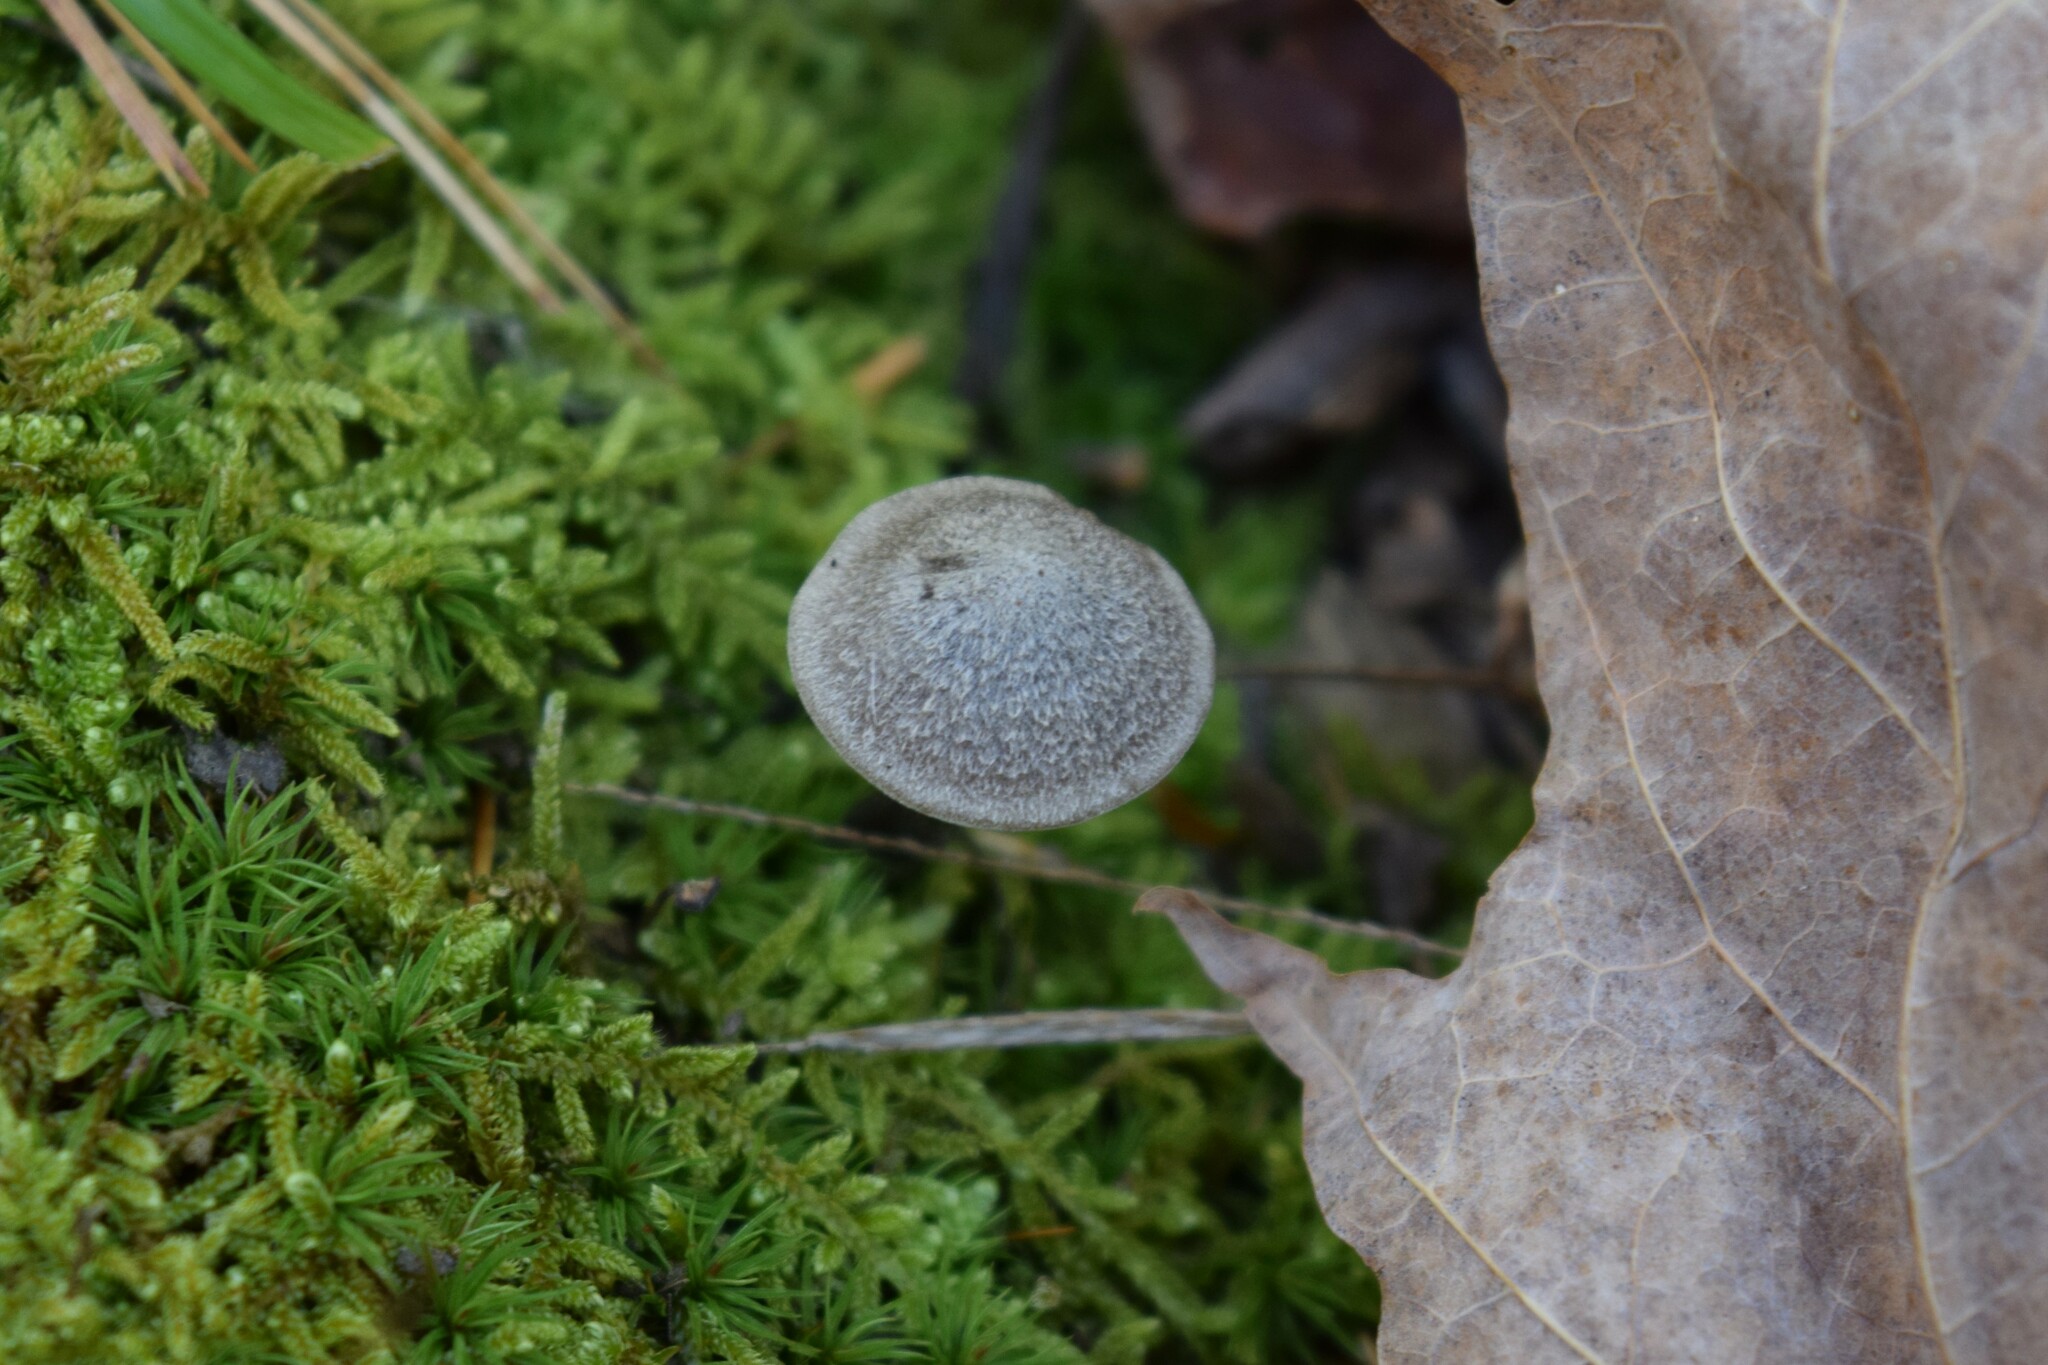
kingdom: Fungi
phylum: Basidiomycota
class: Agaricomycetes
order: Agaricales
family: Entolomataceae
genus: Entoloma
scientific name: Entoloma conicum
